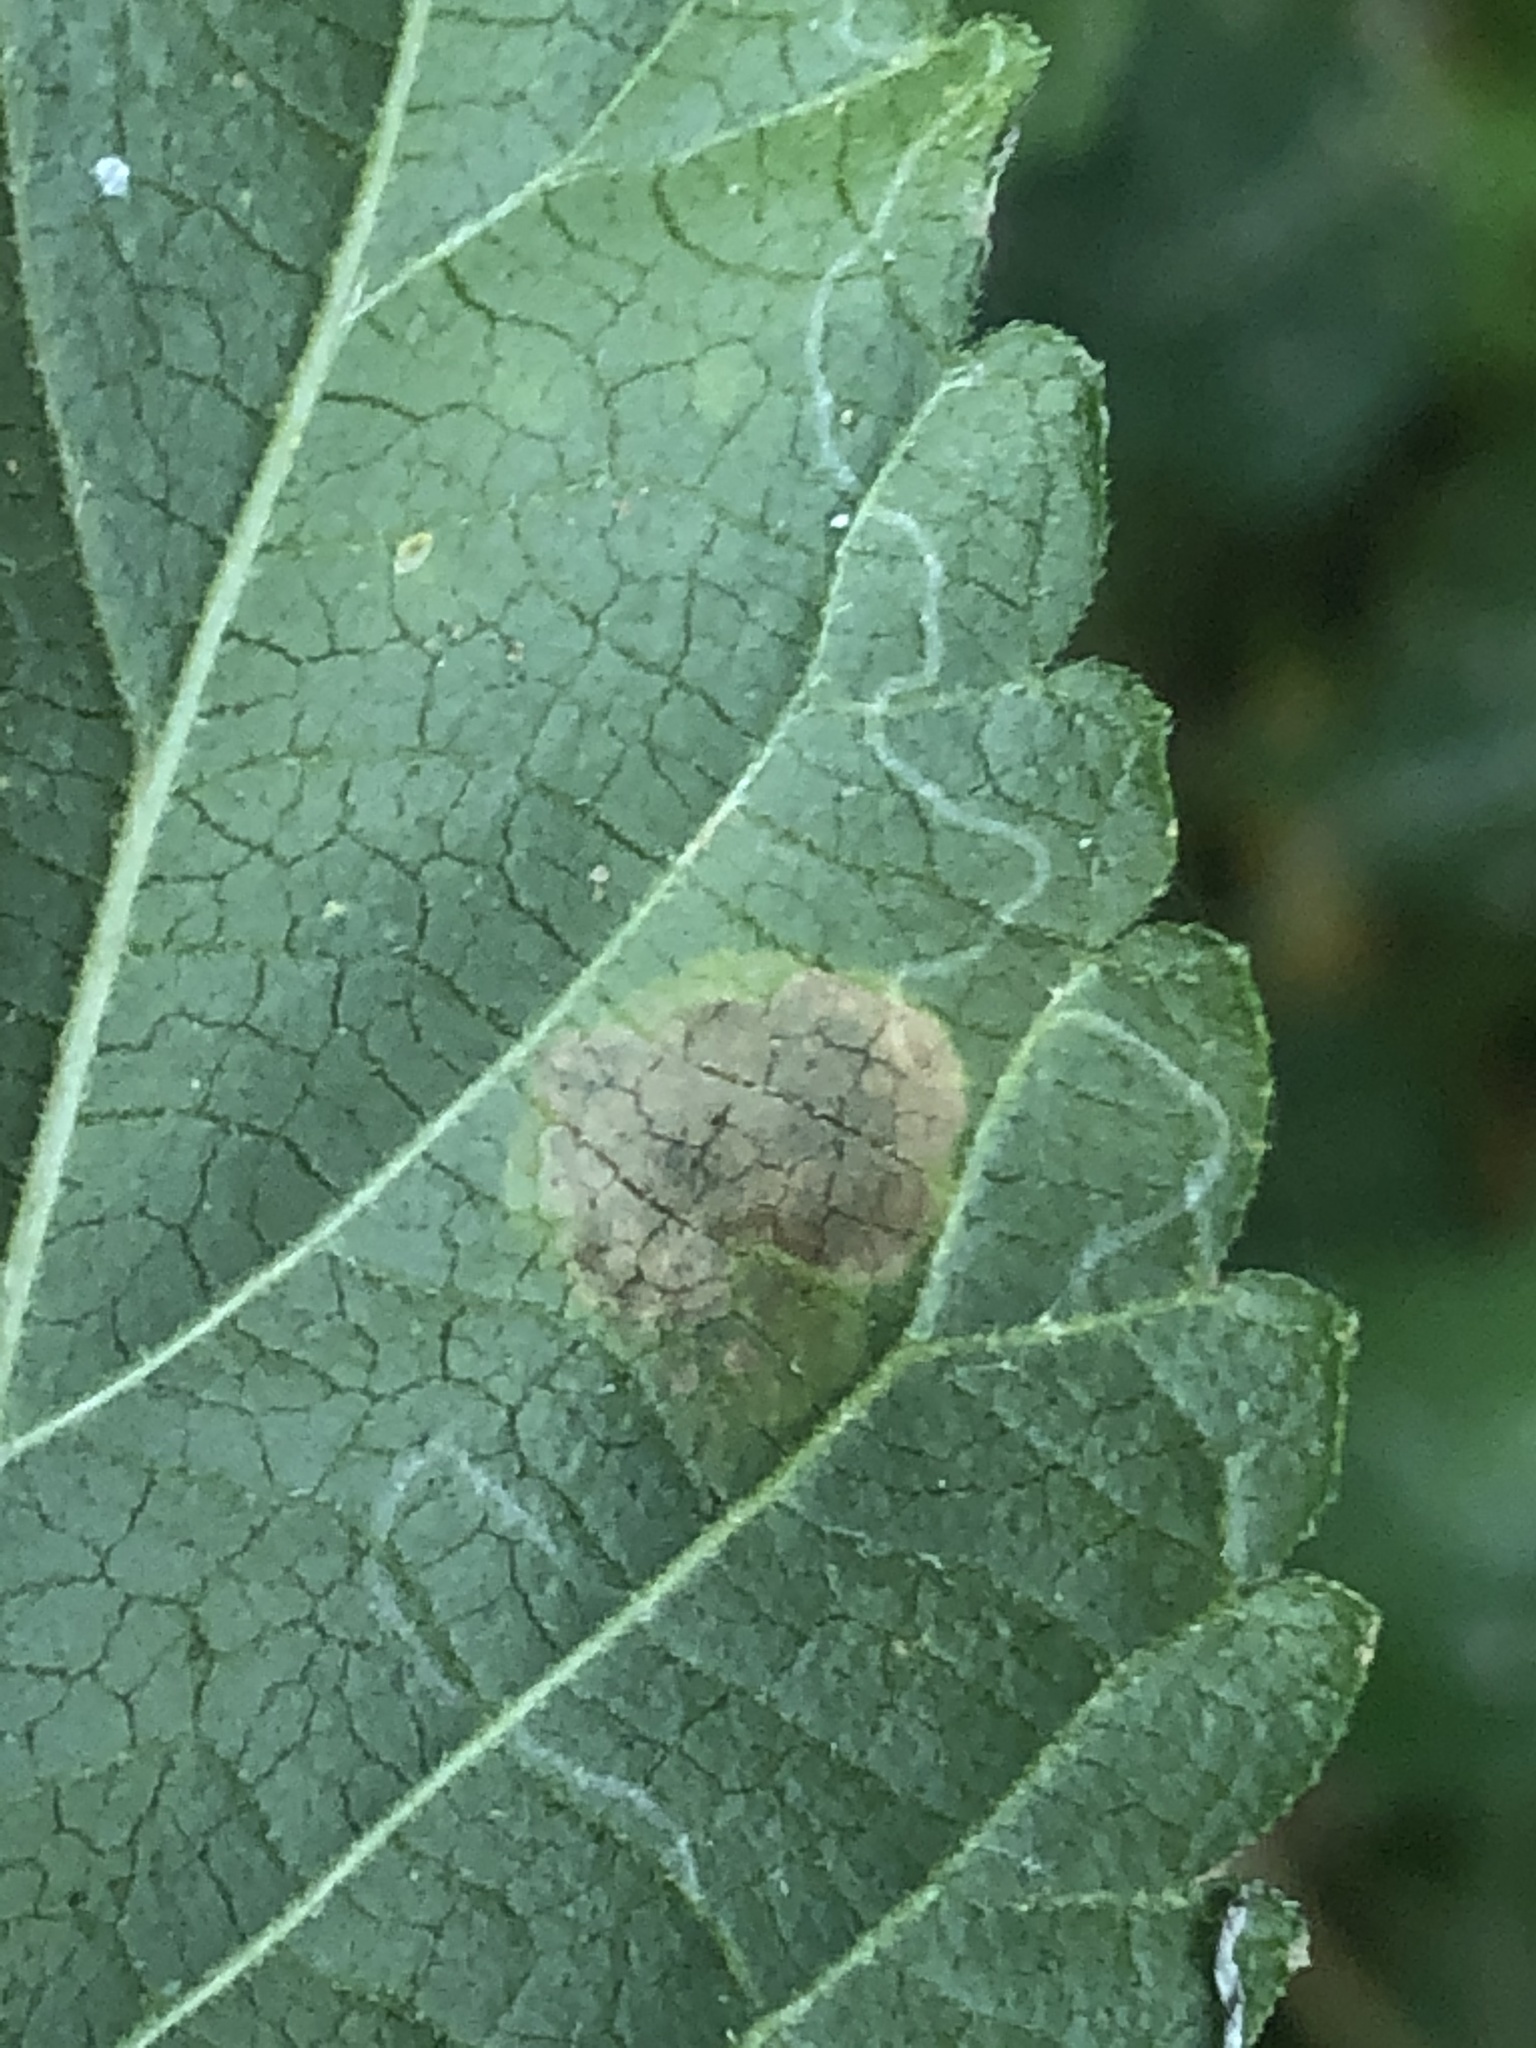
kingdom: Animalia
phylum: Arthropoda
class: Insecta
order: Diptera
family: Agromyzidae
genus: Calycomyza
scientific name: Calycomyza lantanae
